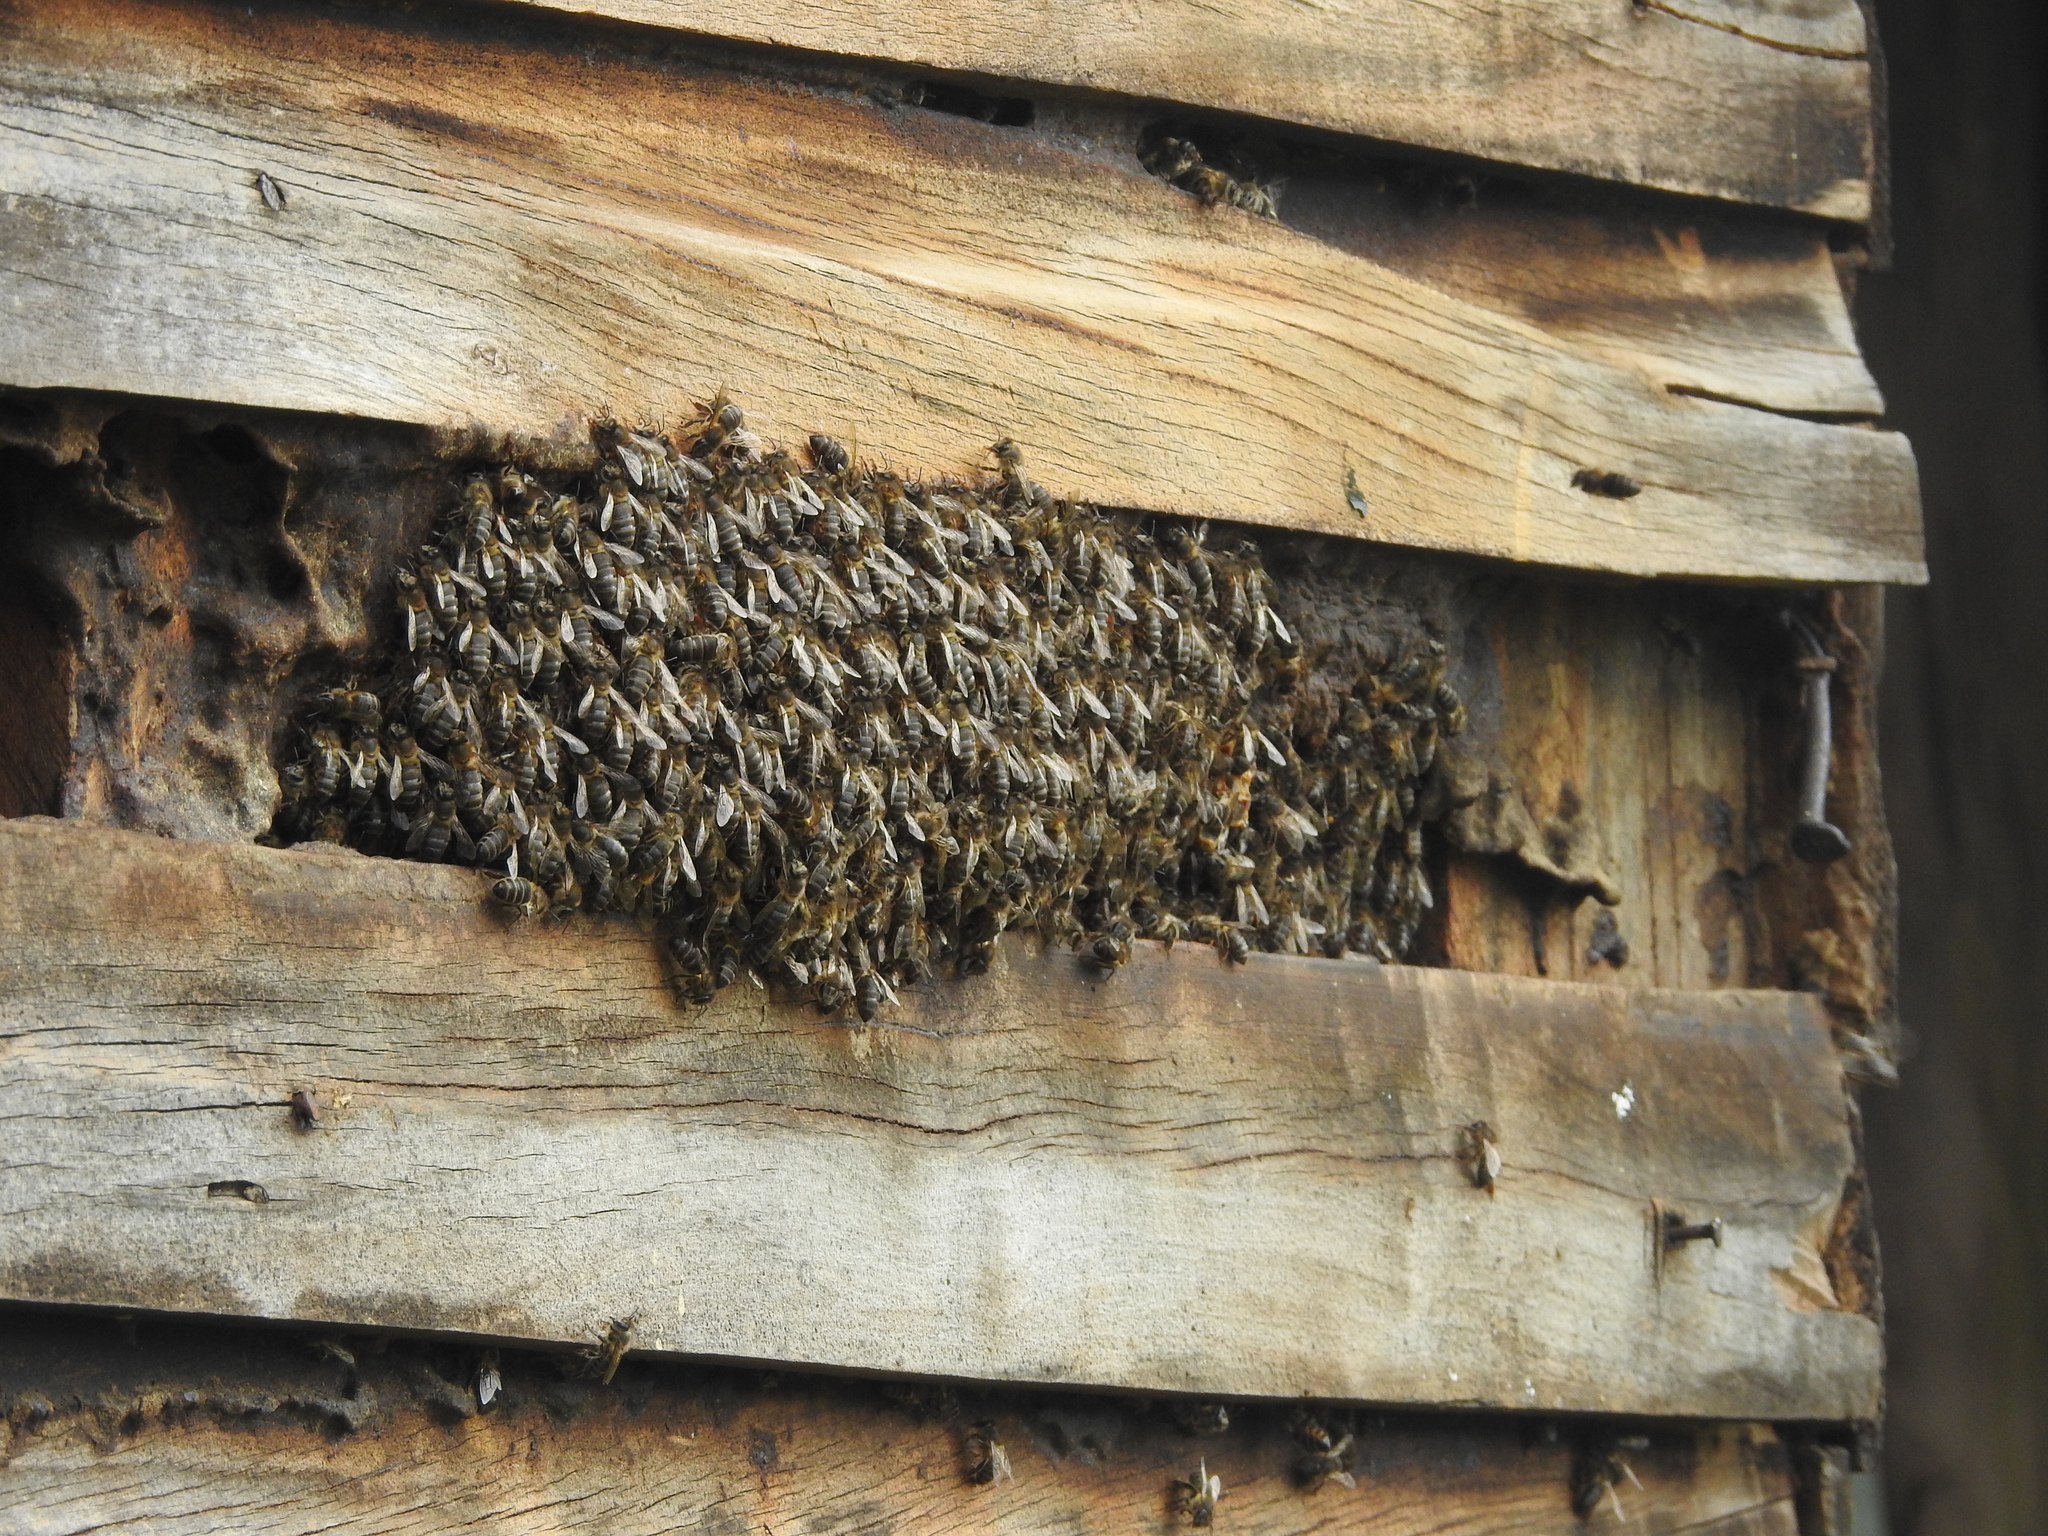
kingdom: Animalia
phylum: Arthropoda
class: Insecta
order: Hymenoptera
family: Apidae
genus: Apis
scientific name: Apis mellifera
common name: Honey bee
